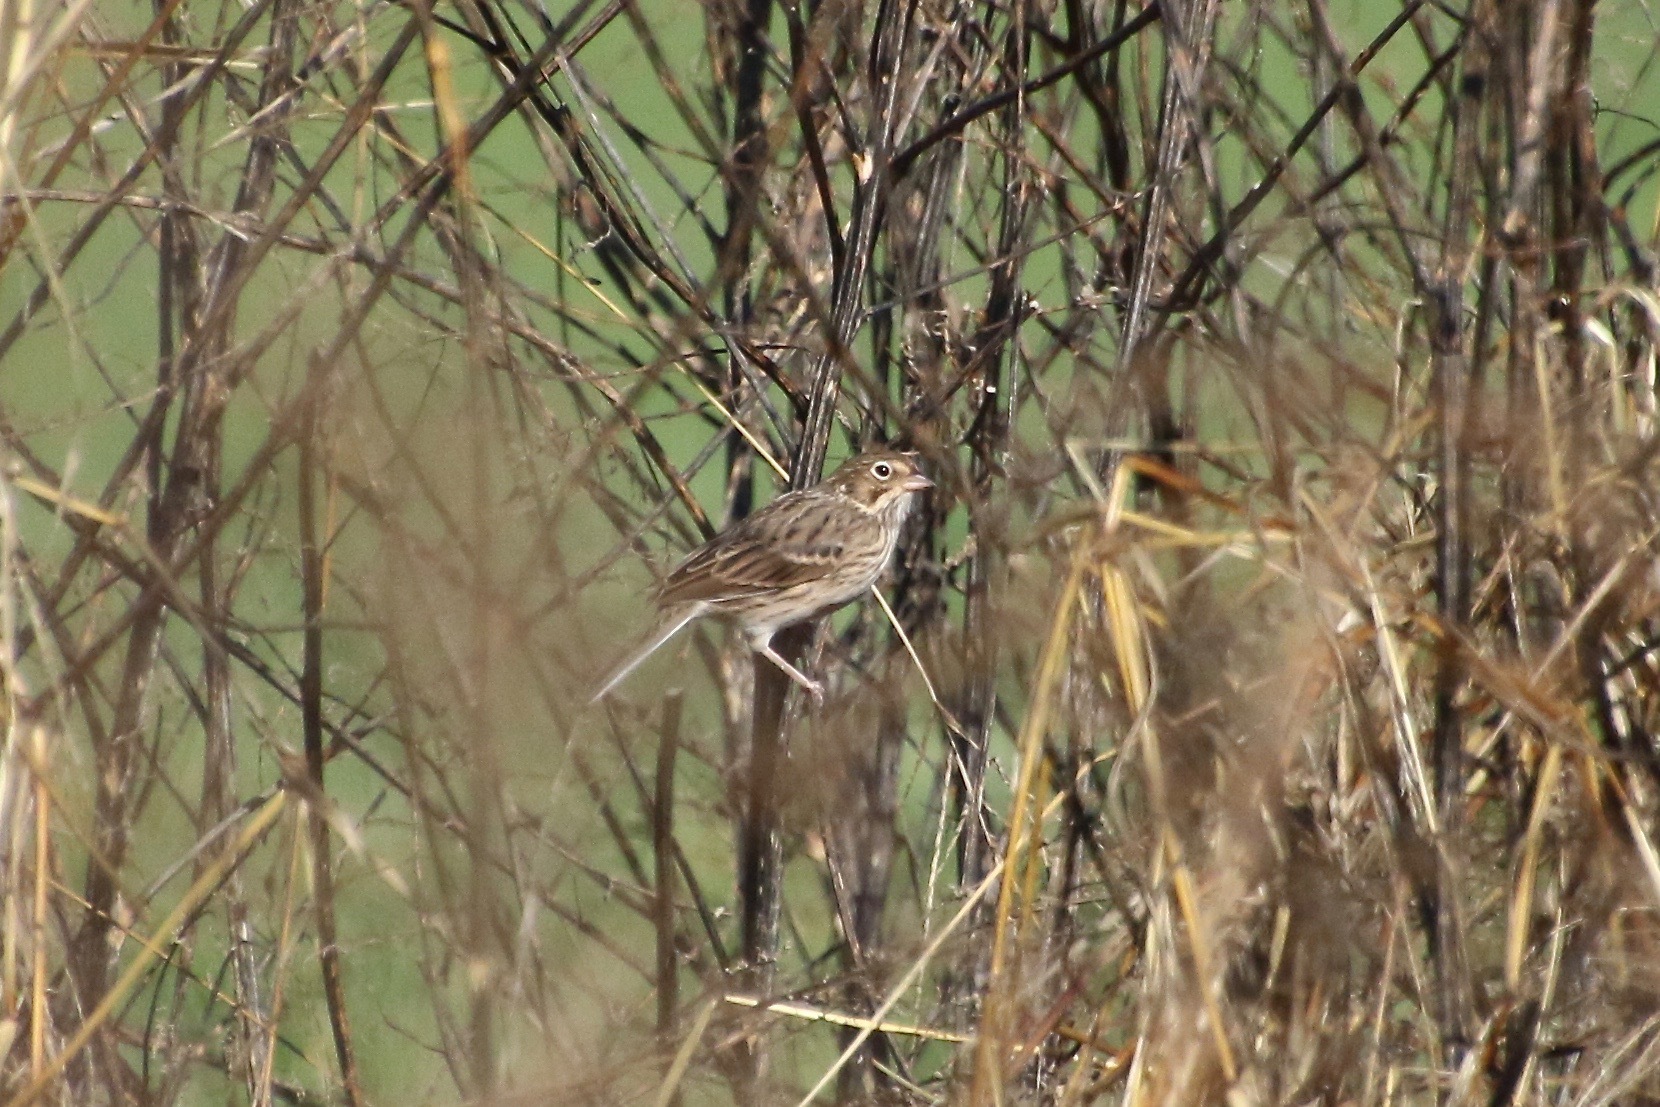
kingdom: Animalia
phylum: Chordata
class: Aves
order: Passeriformes
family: Passerellidae
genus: Pooecetes
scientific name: Pooecetes gramineus
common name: Vesper sparrow
